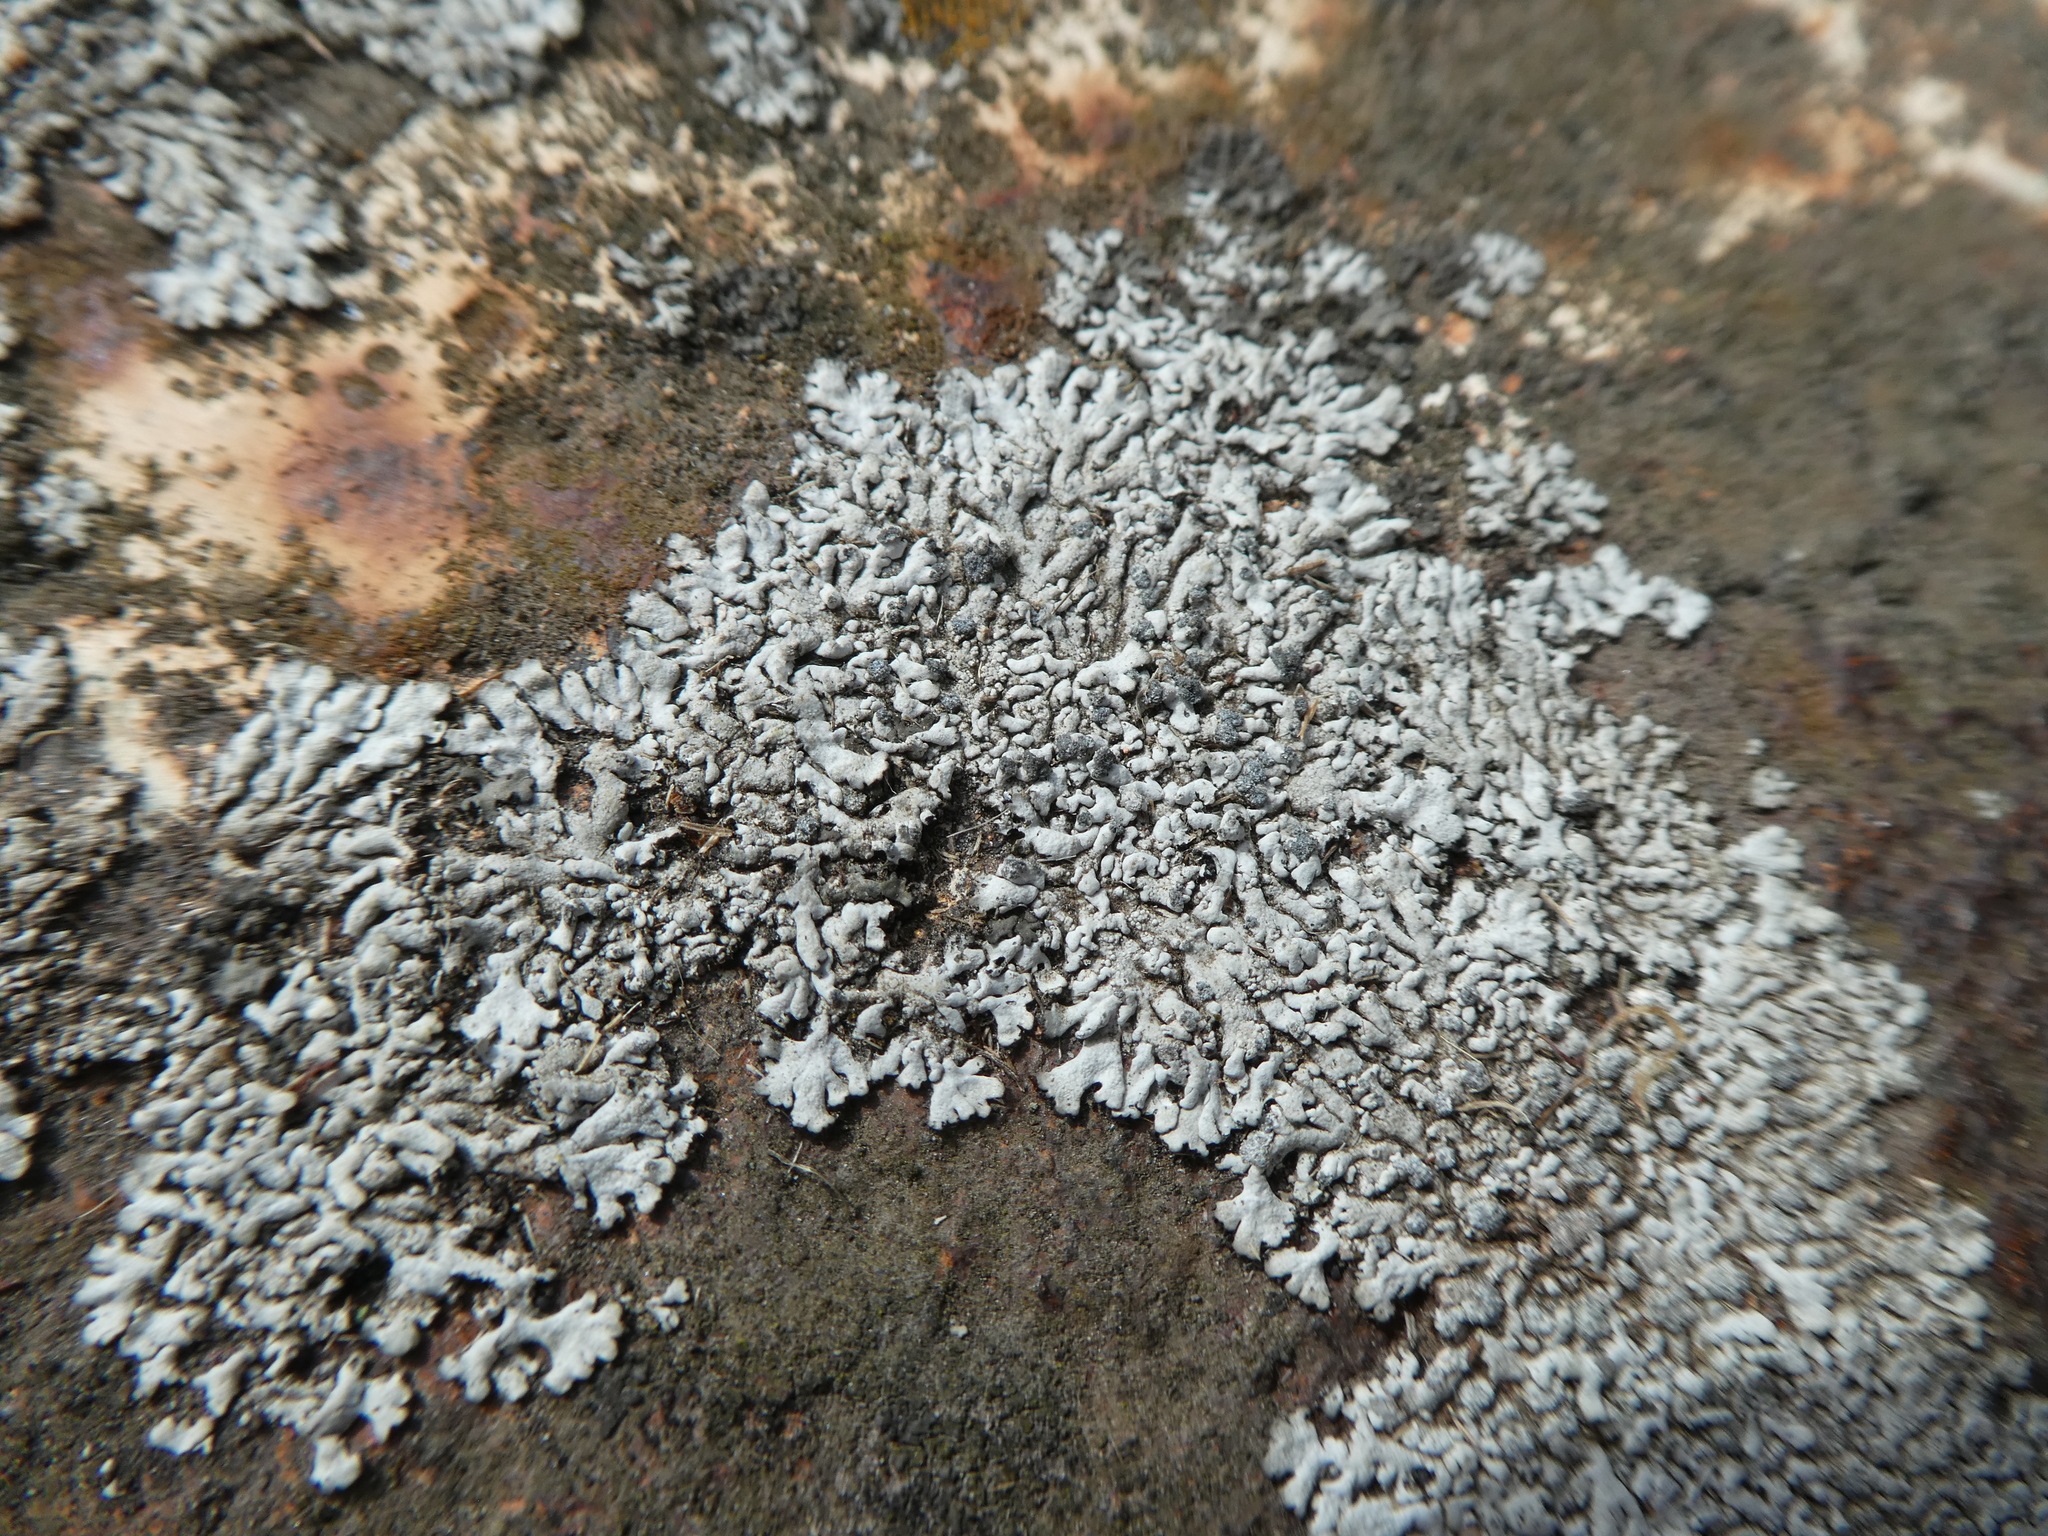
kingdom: Fungi
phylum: Ascomycota
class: Lecanoromycetes
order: Caliciales
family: Physciaceae
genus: Physcia
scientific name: Physcia caesia
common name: Blue-gray rosette lichen
